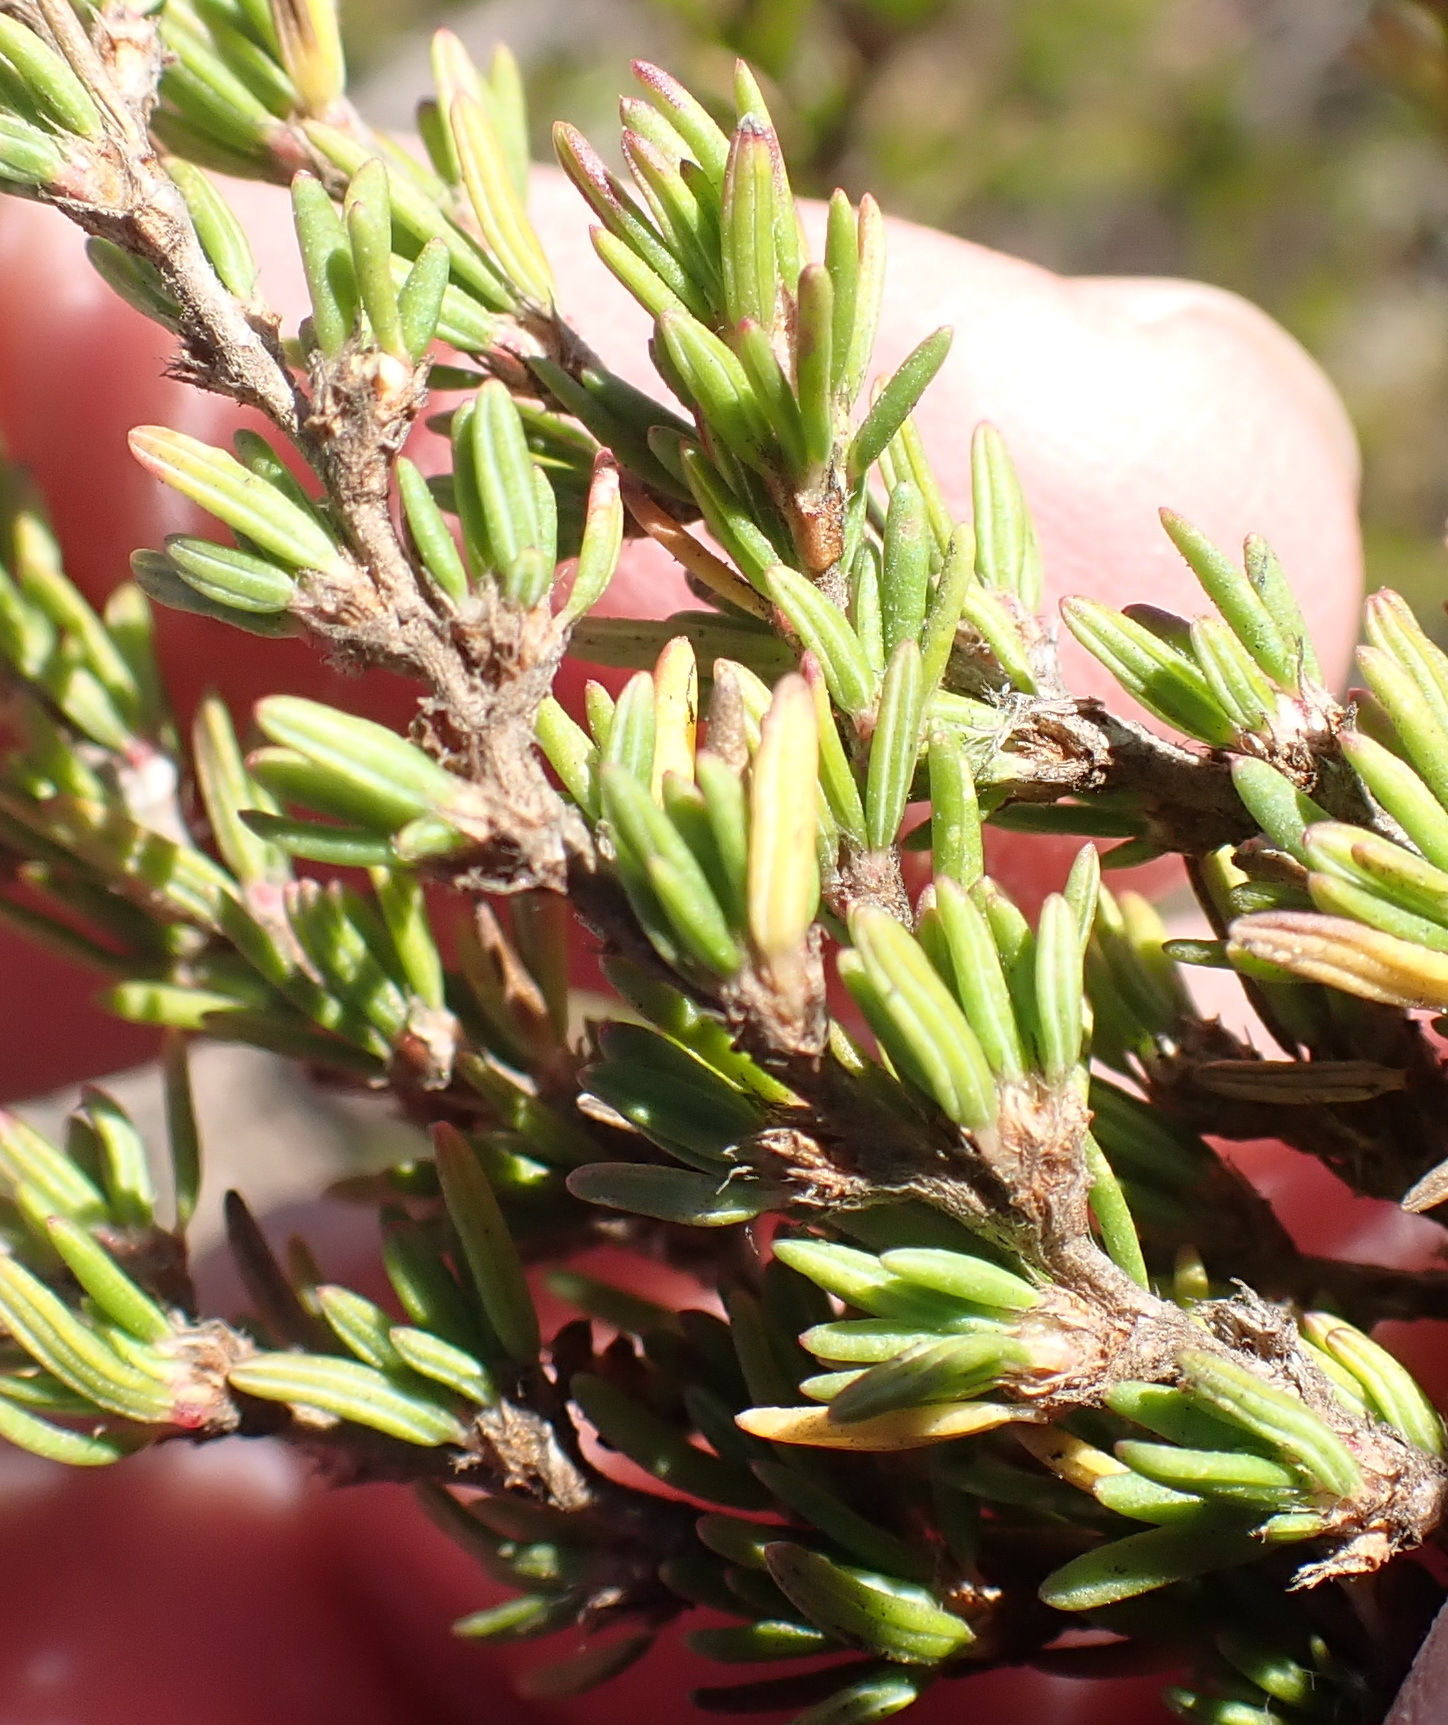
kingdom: Plantae
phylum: Tracheophyta
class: Magnoliopsida
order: Rosales
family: Rosaceae
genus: Cliffortia
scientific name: Cliffortia repens
